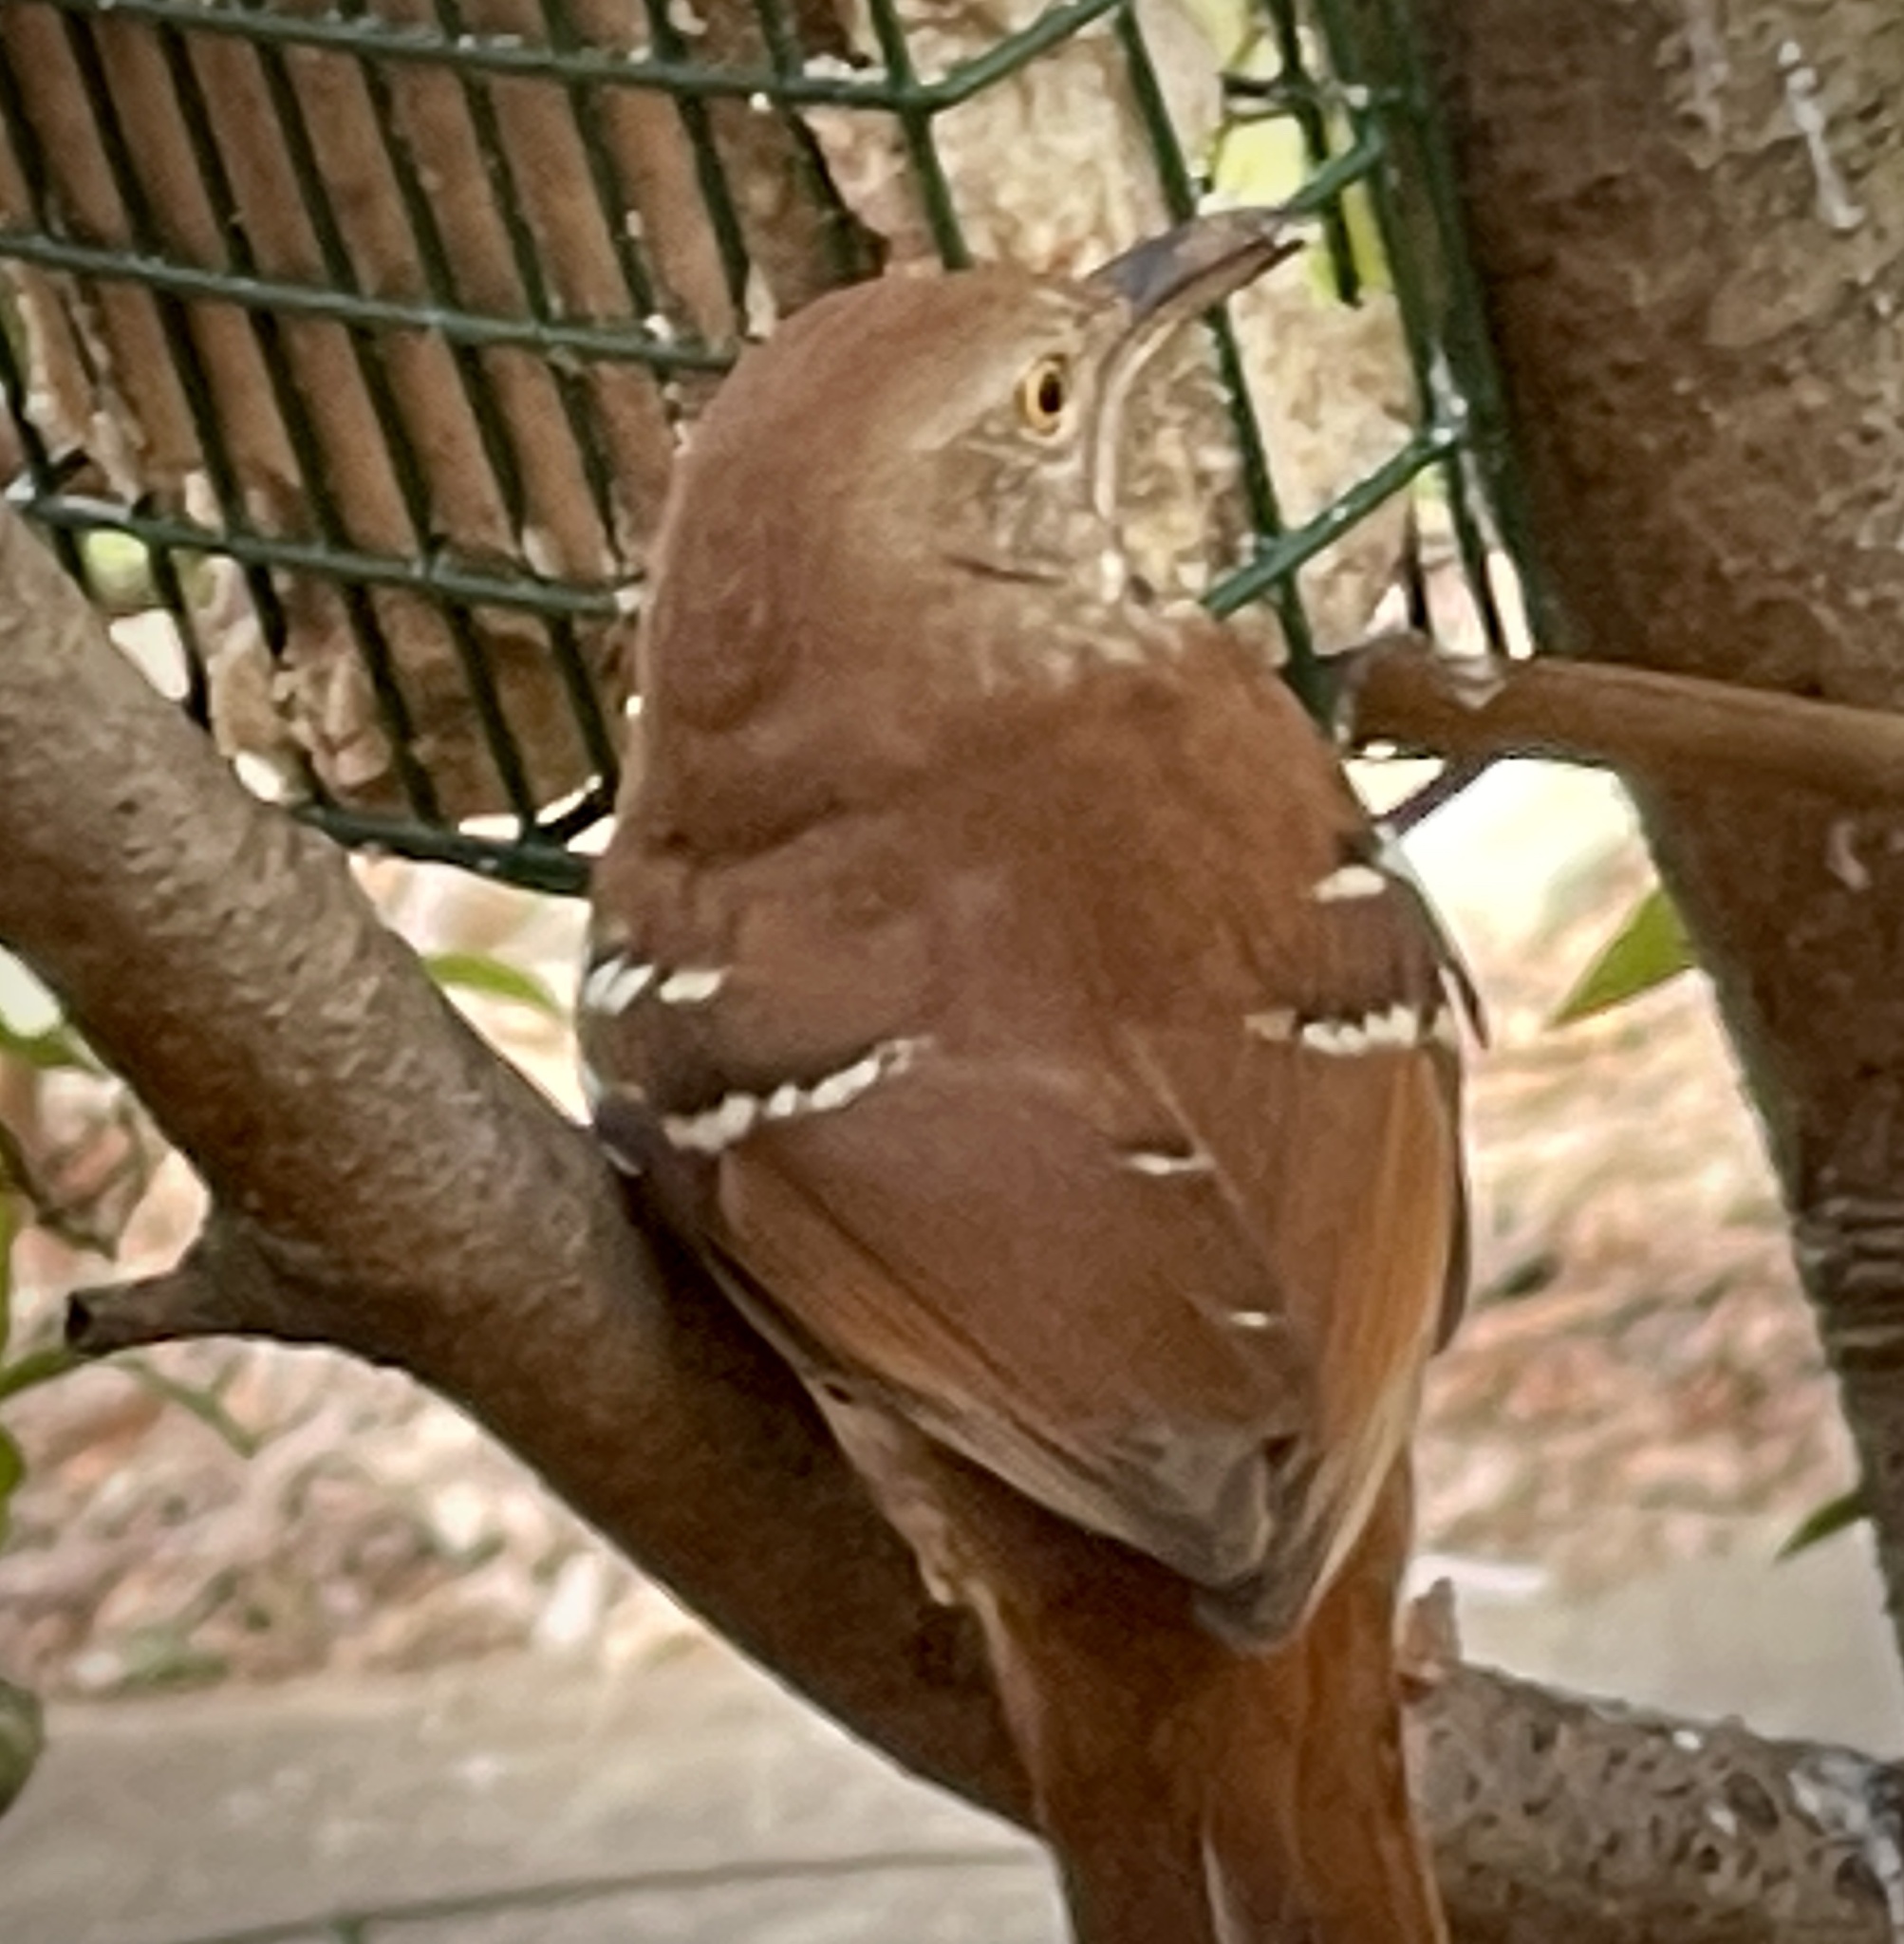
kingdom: Animalia
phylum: Chordata
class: Aves
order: Passeriformes
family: Mimidae
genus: Toxostoma
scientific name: Toxostoma rufum
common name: Brown thrasher
